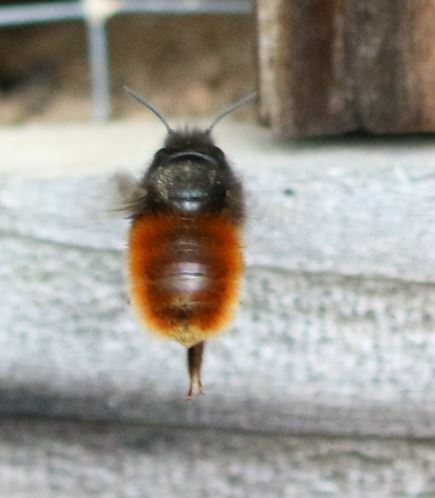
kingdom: Animalia
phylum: Arthropoda
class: Insecta
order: Hymenoptera
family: Megachilidae
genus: Osmia
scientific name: Osmia cornuta
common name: Mason bee
